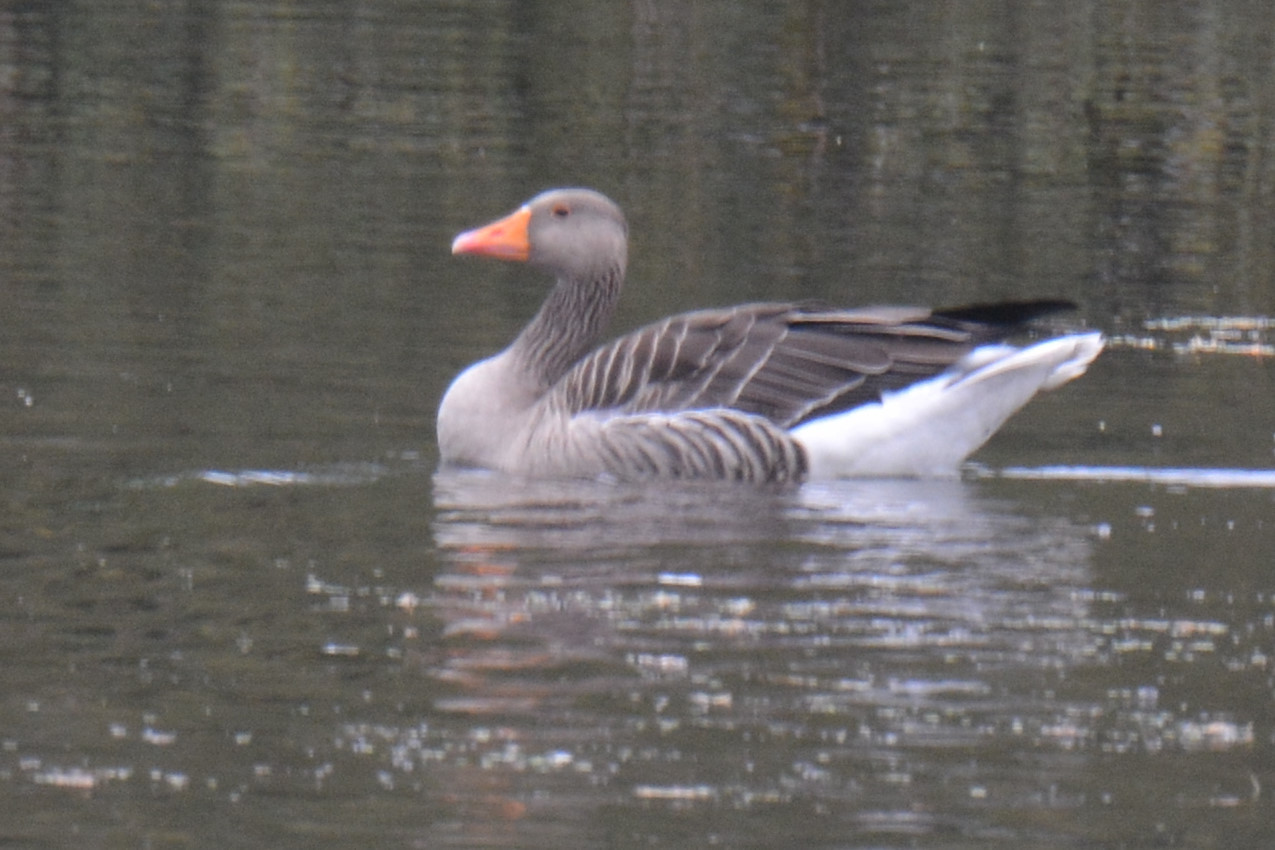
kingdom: Animalia
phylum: Chordata
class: Aves
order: Anseriformes
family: Anatidae
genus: Anser
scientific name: Anser anser
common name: Greylag goose
